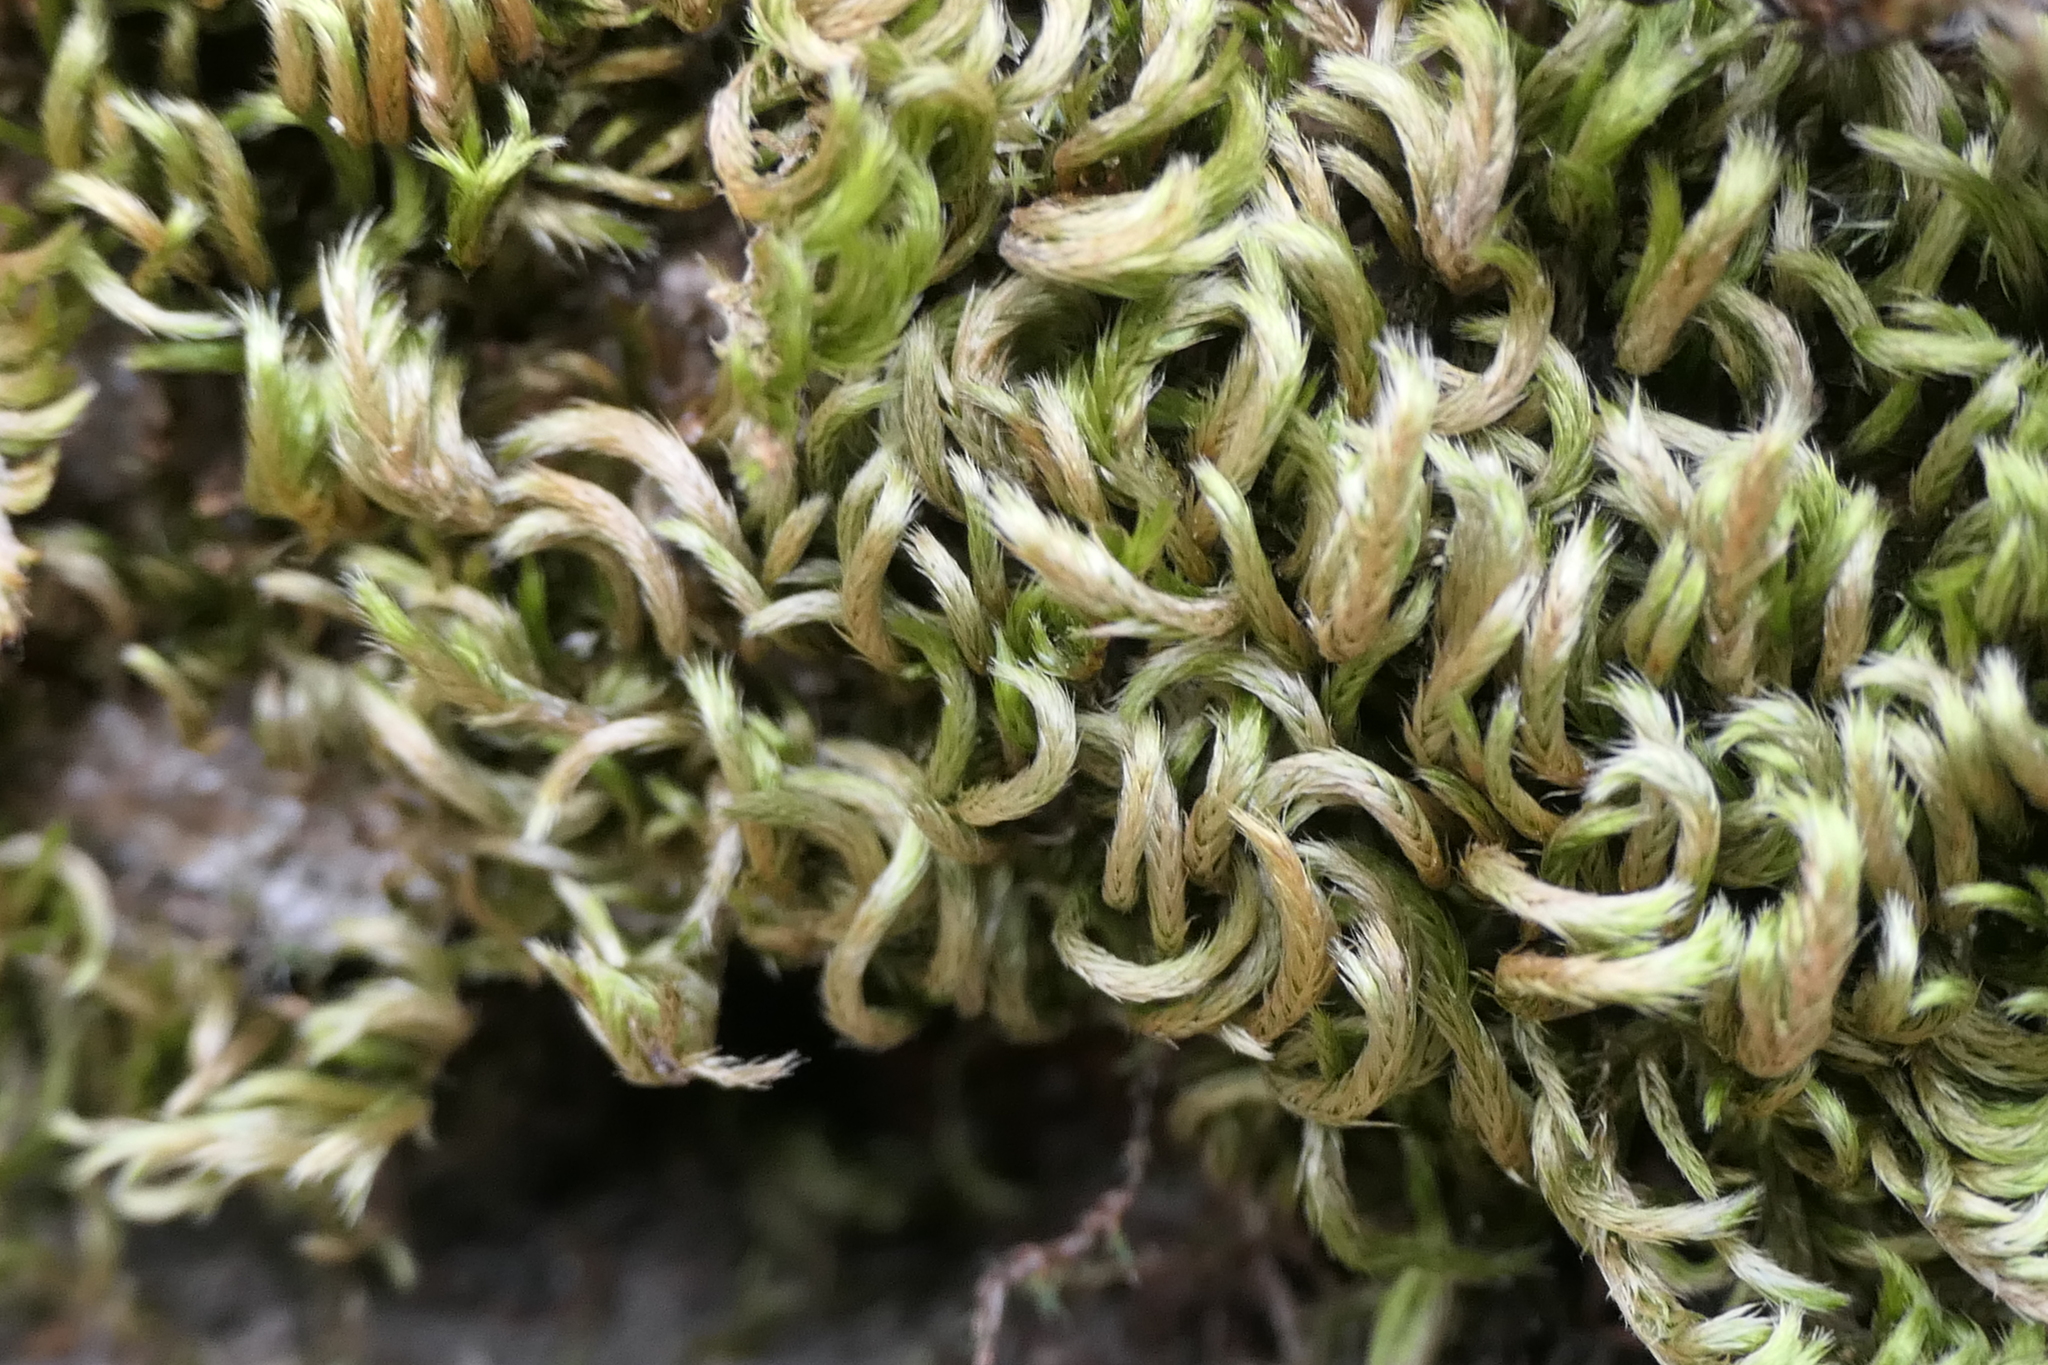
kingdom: Plantae
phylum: Bryophyta
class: Bryopsida
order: Hypnales
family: Brachytheciaceae
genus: Homalothecium
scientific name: Homalothecium sericeum
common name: Silky wall feather-moss
